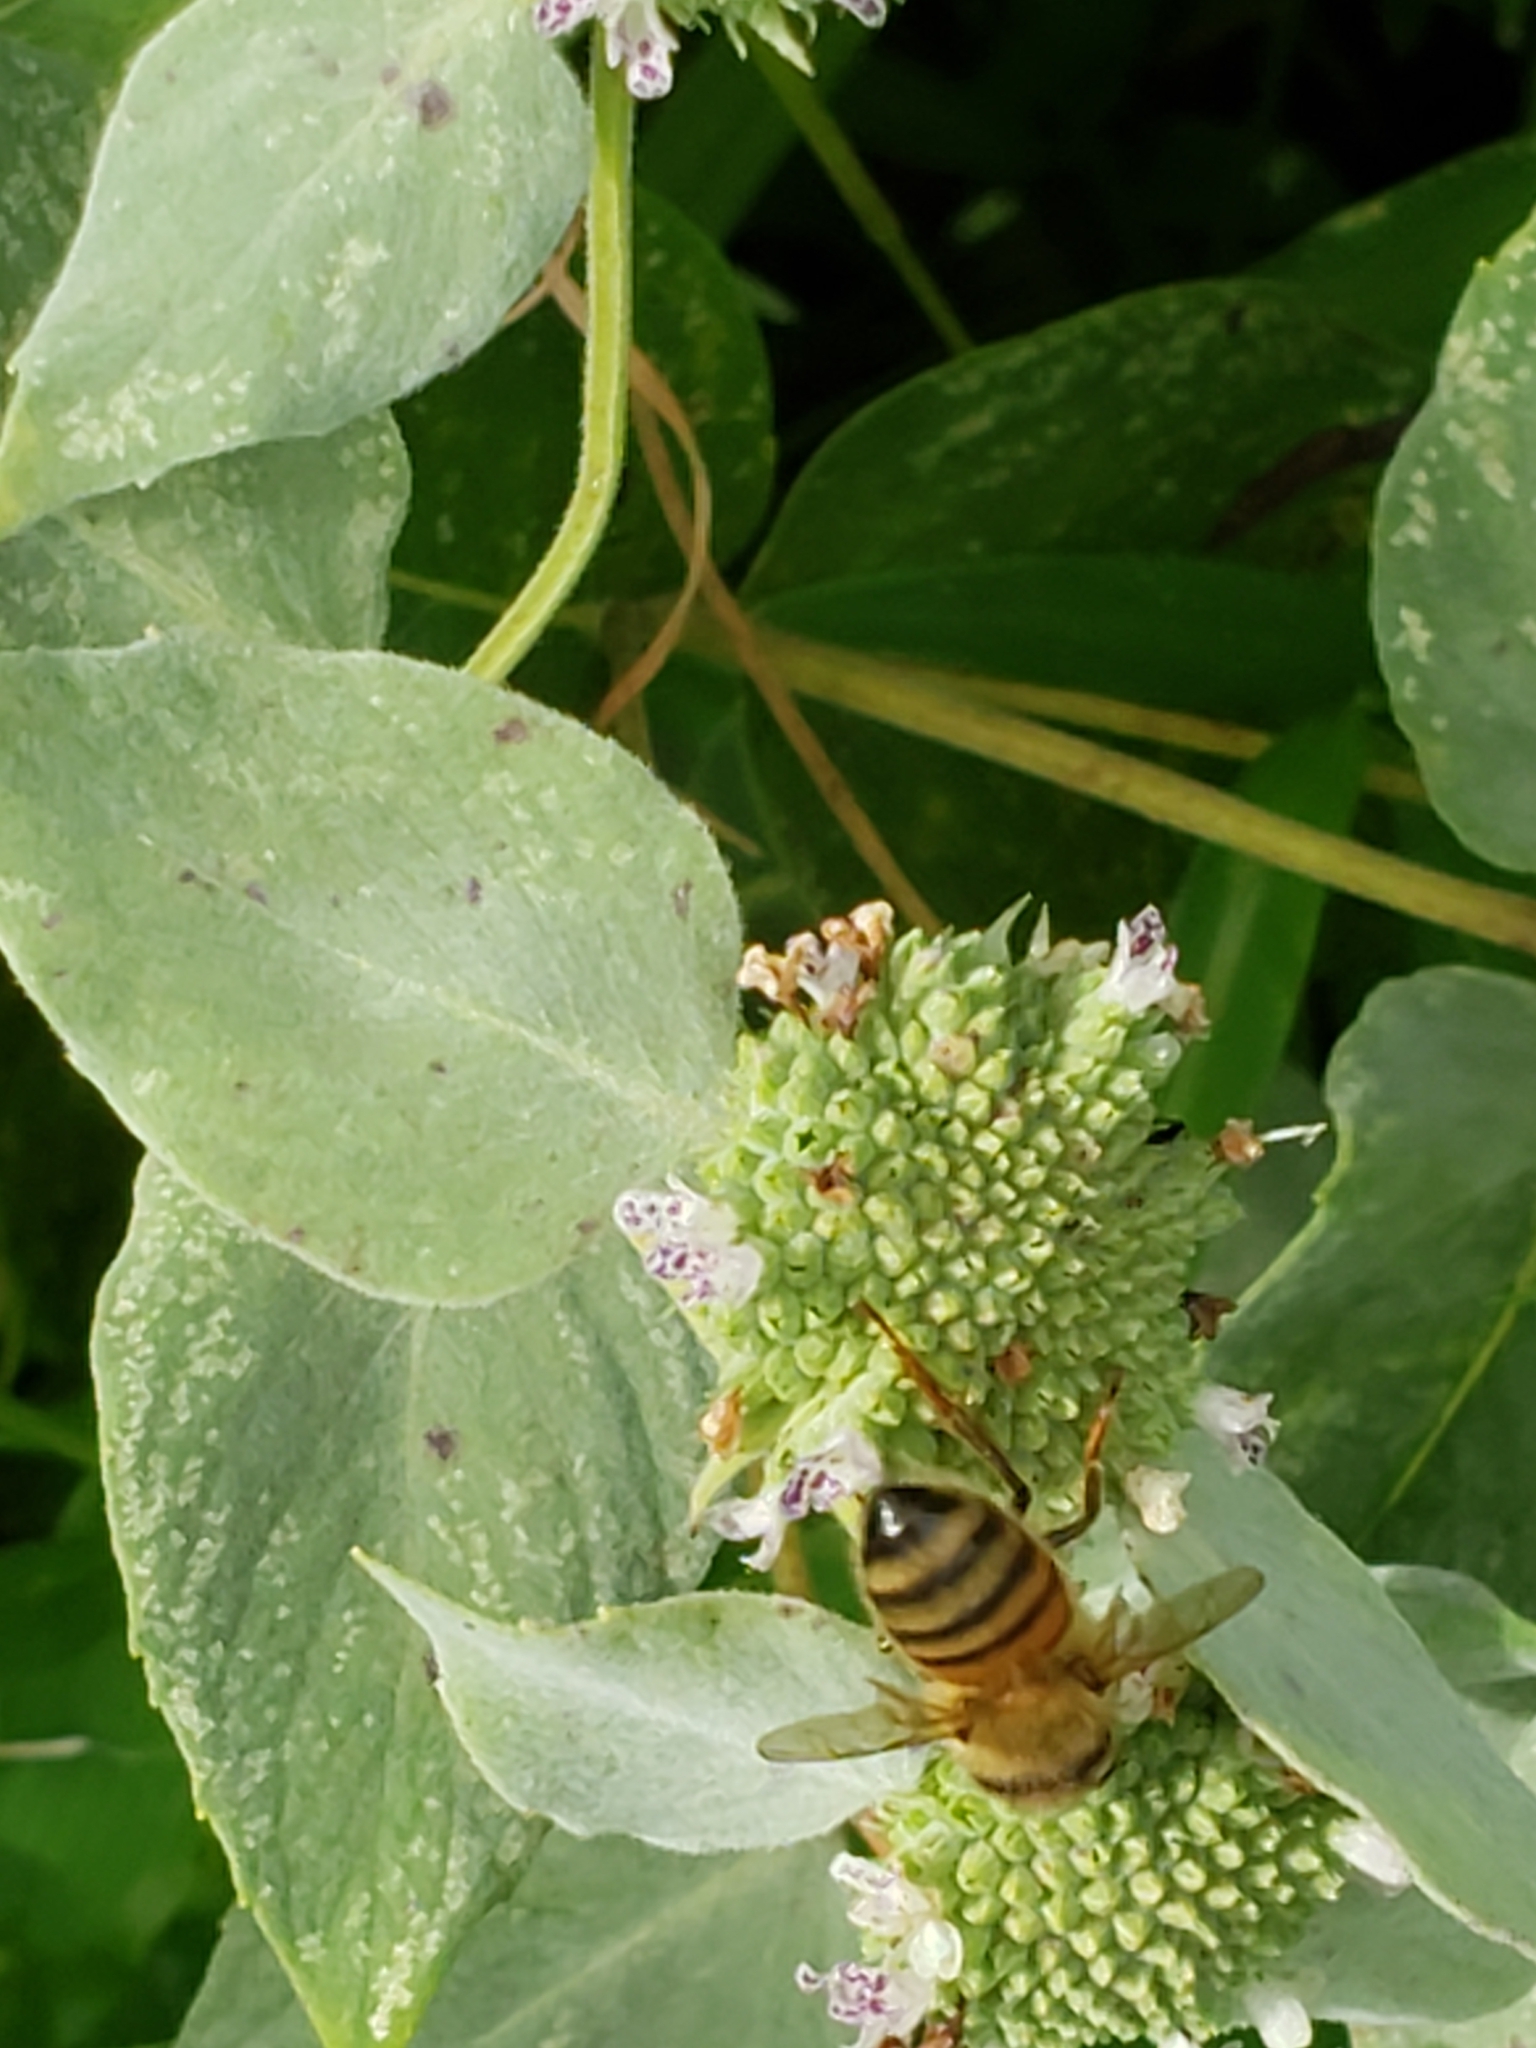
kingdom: Animalia
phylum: Arthropoda
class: Insecta
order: Hymenoptera
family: Apidae
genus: Apis
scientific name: Apis mellifera
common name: Honey bee
